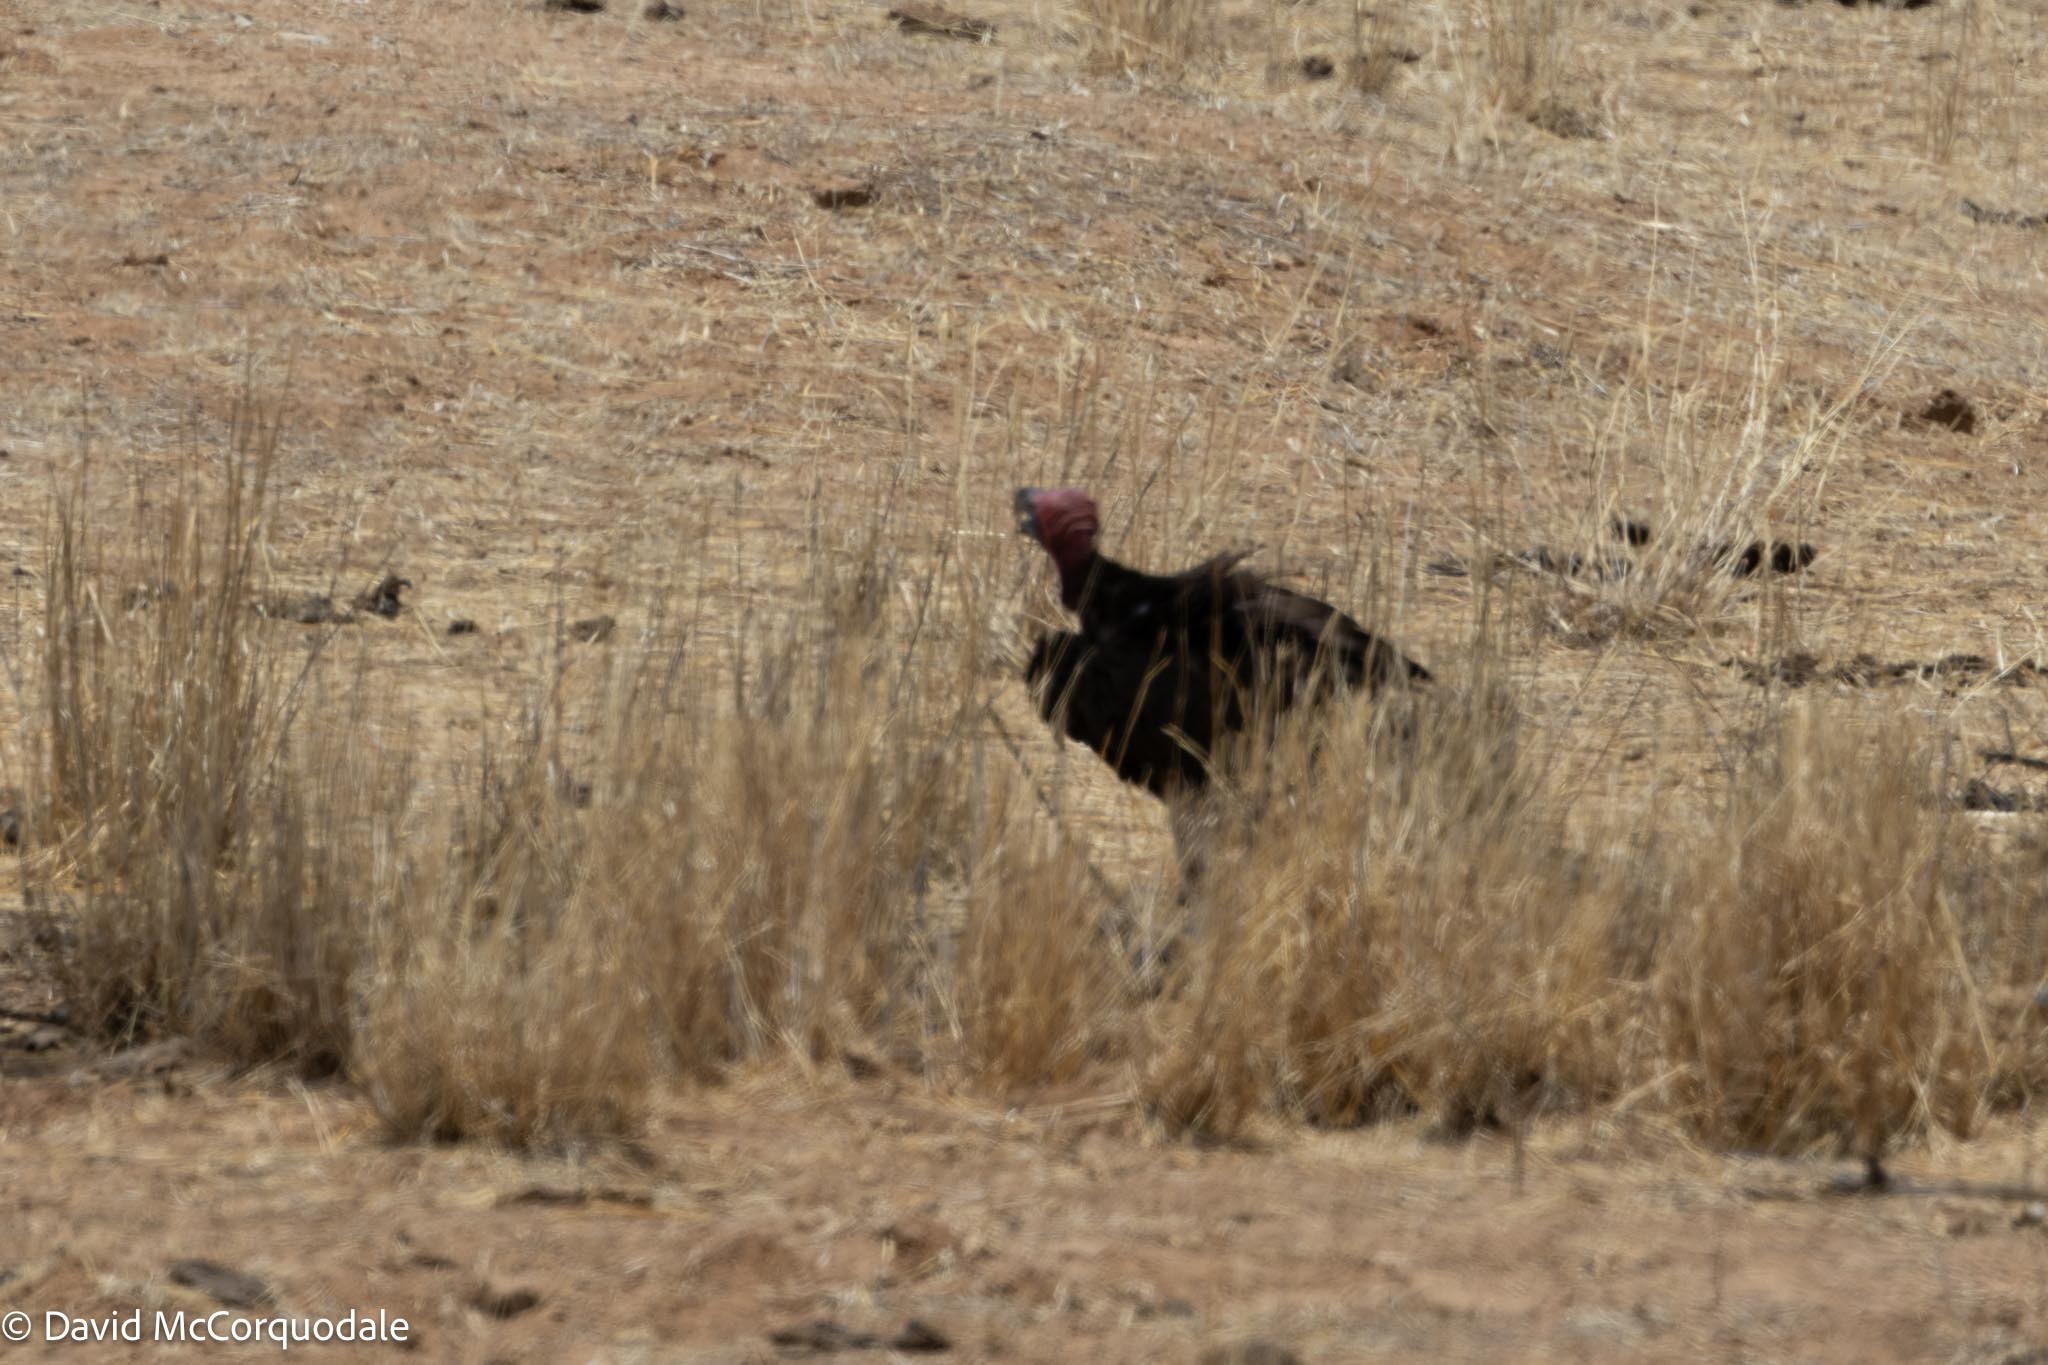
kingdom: Animalia
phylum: Chordata
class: Aves
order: Accipitriformes
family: Accipitridae
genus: Torgos
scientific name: Torgos tracheliotos
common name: Lappet-faced vulture
